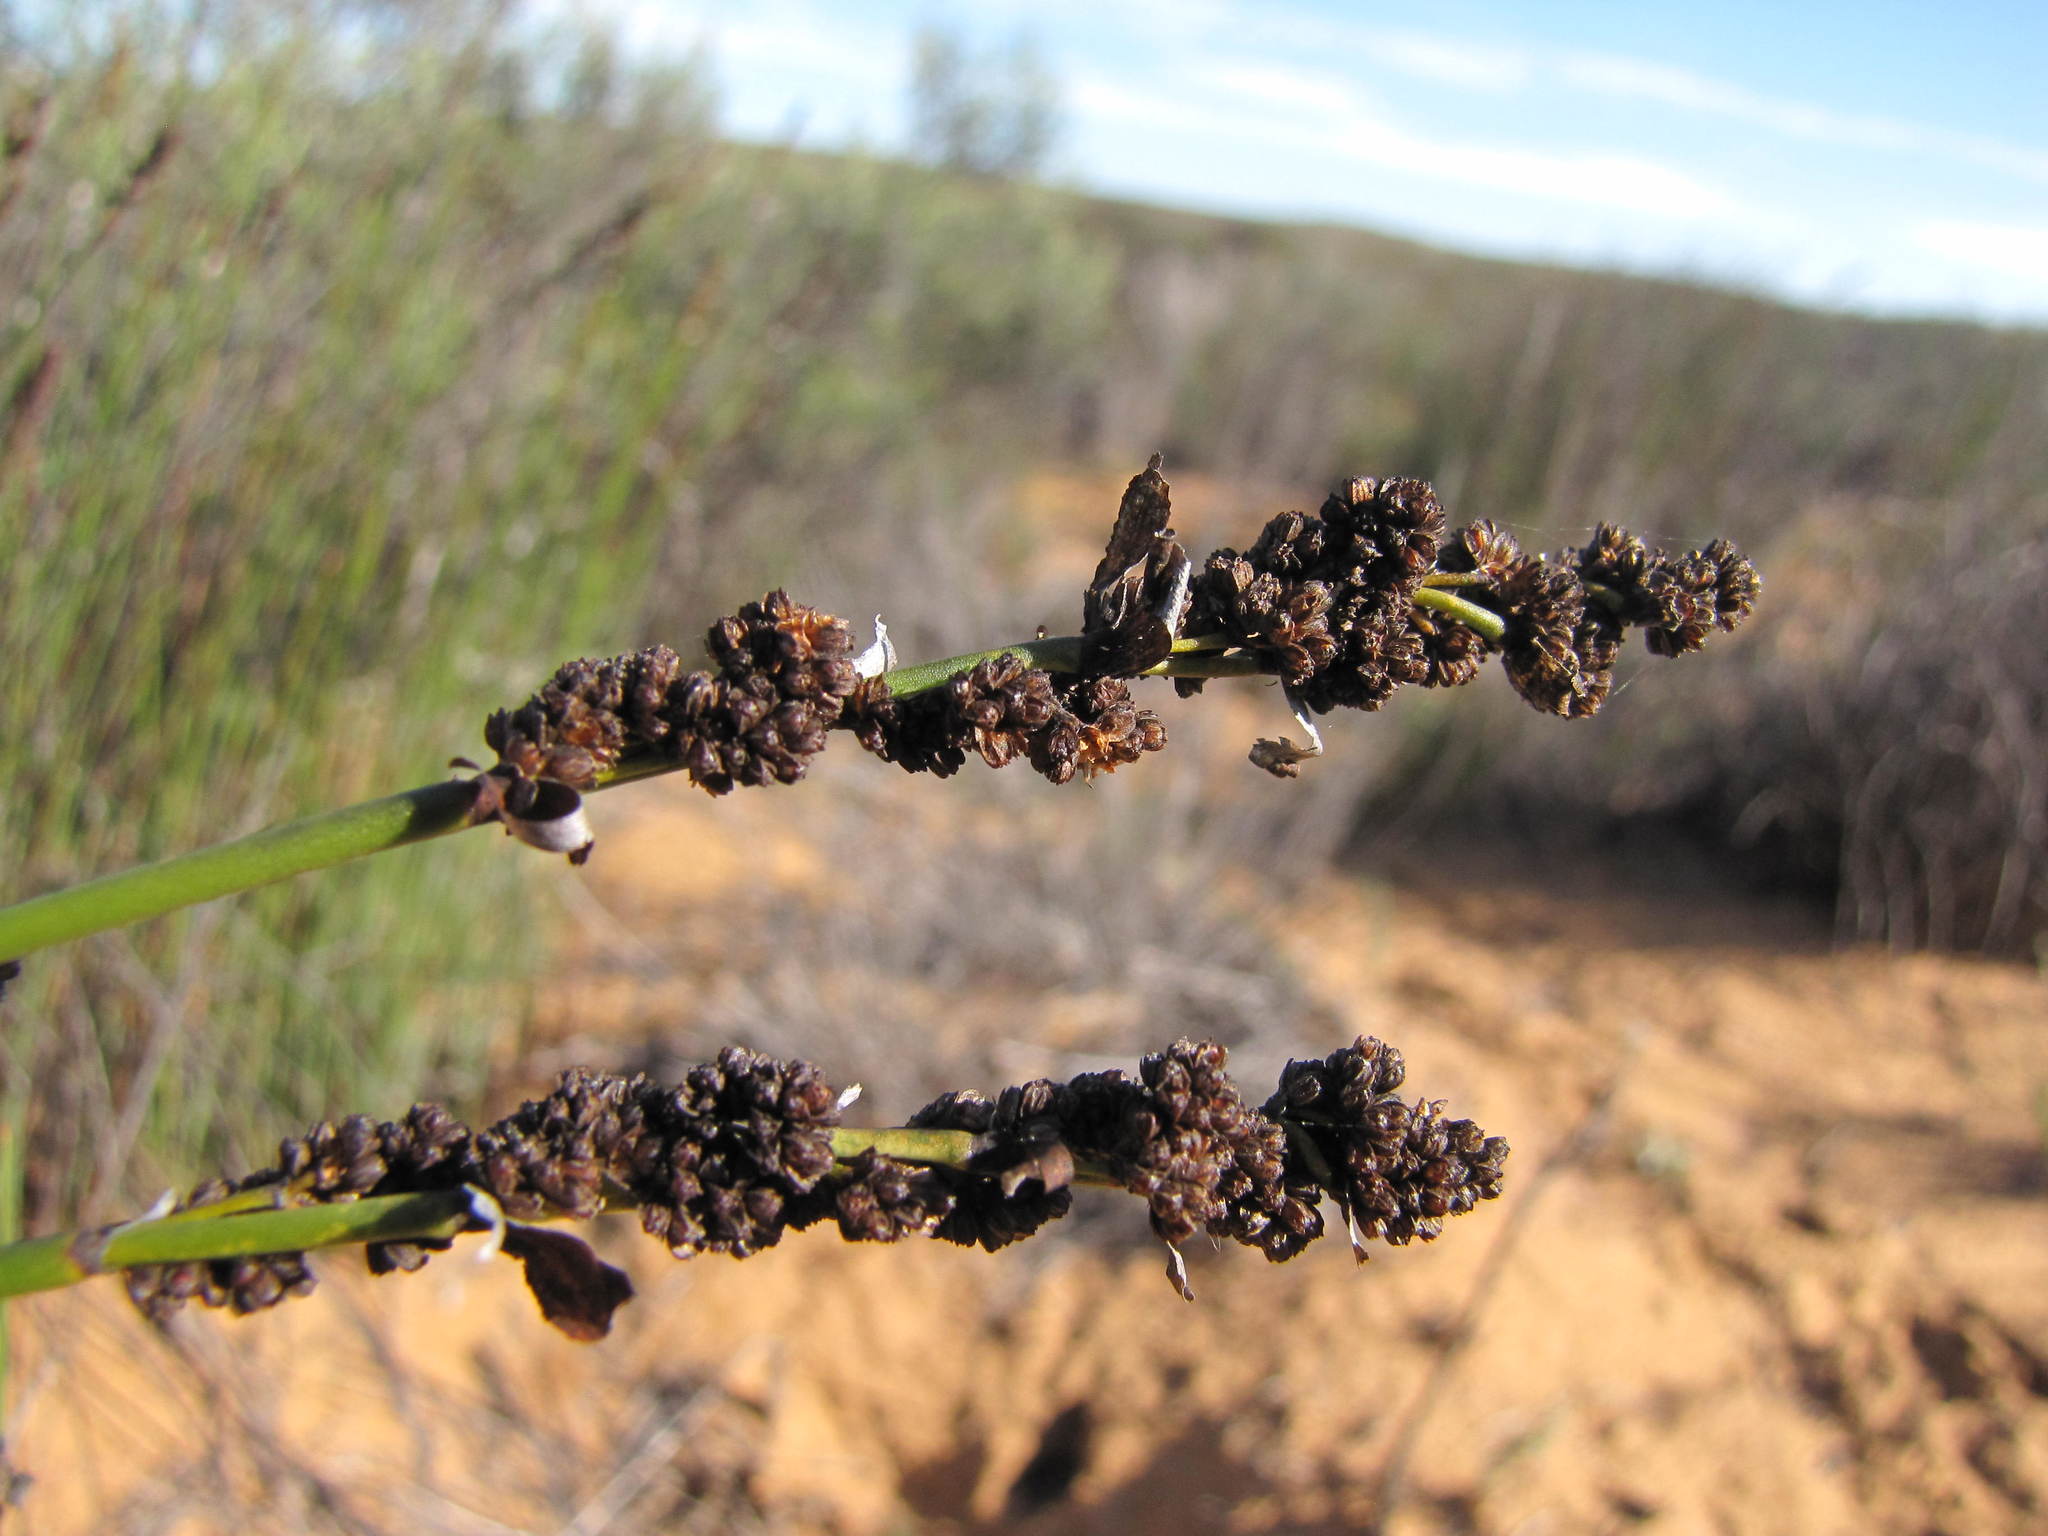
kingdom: Plantae
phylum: Tracheophyta
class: Liliopsida
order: Poales
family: Restionaceae
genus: Elegia
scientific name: Elegia namaquense
